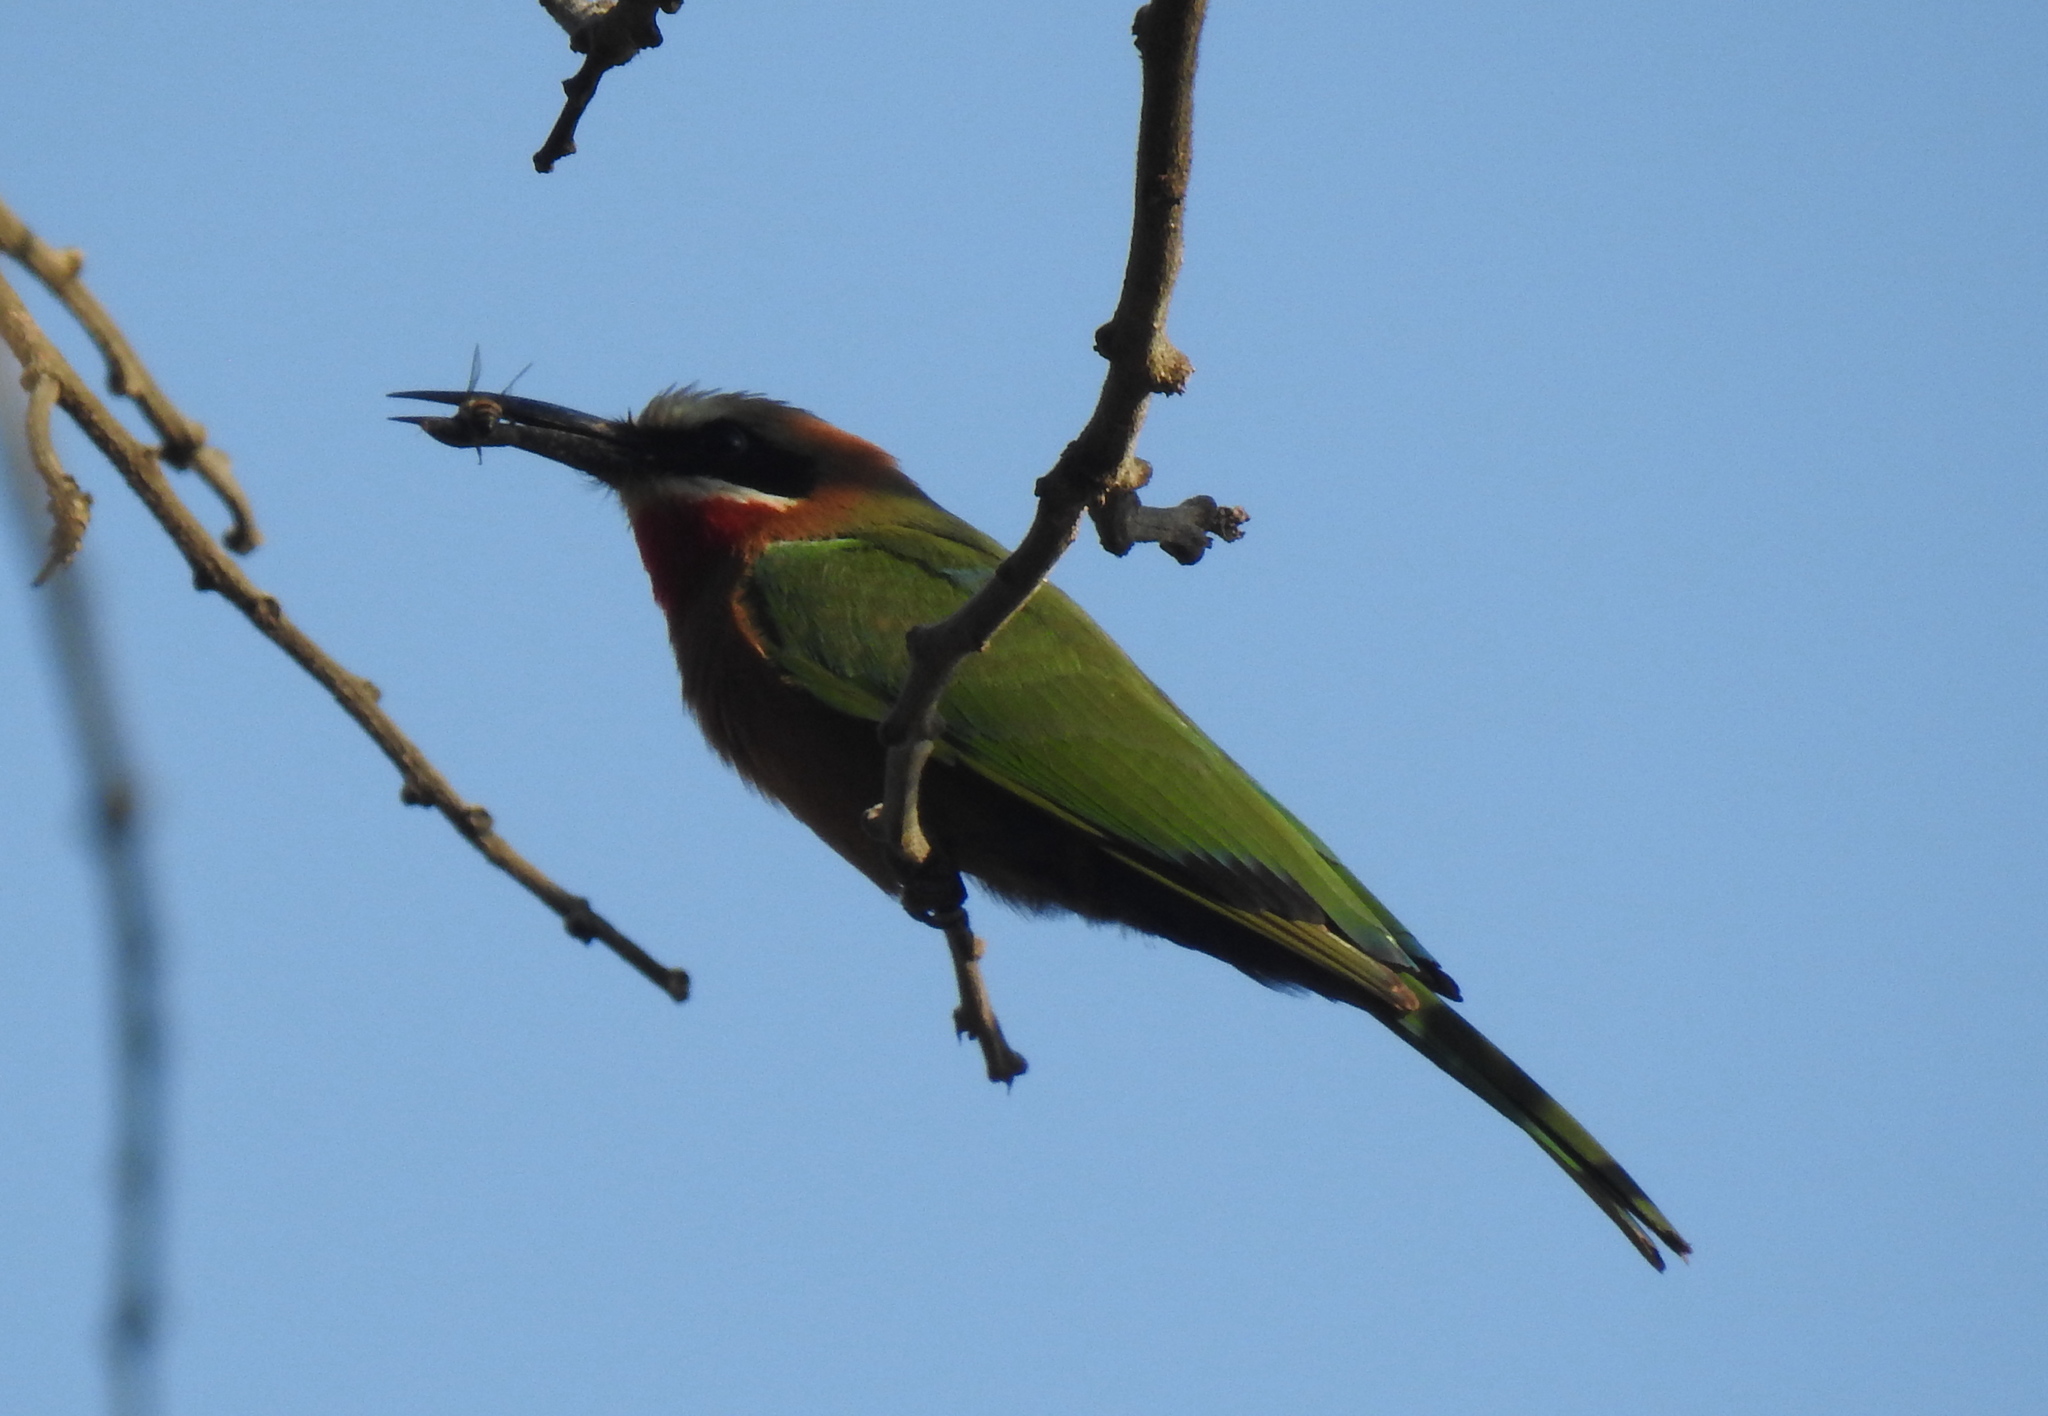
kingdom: Animalia
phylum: Chordata
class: Aves
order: Coraciiformes
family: Meropidae
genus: Merops
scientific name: Merops bullockoides
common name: White-fronted bee-eater
